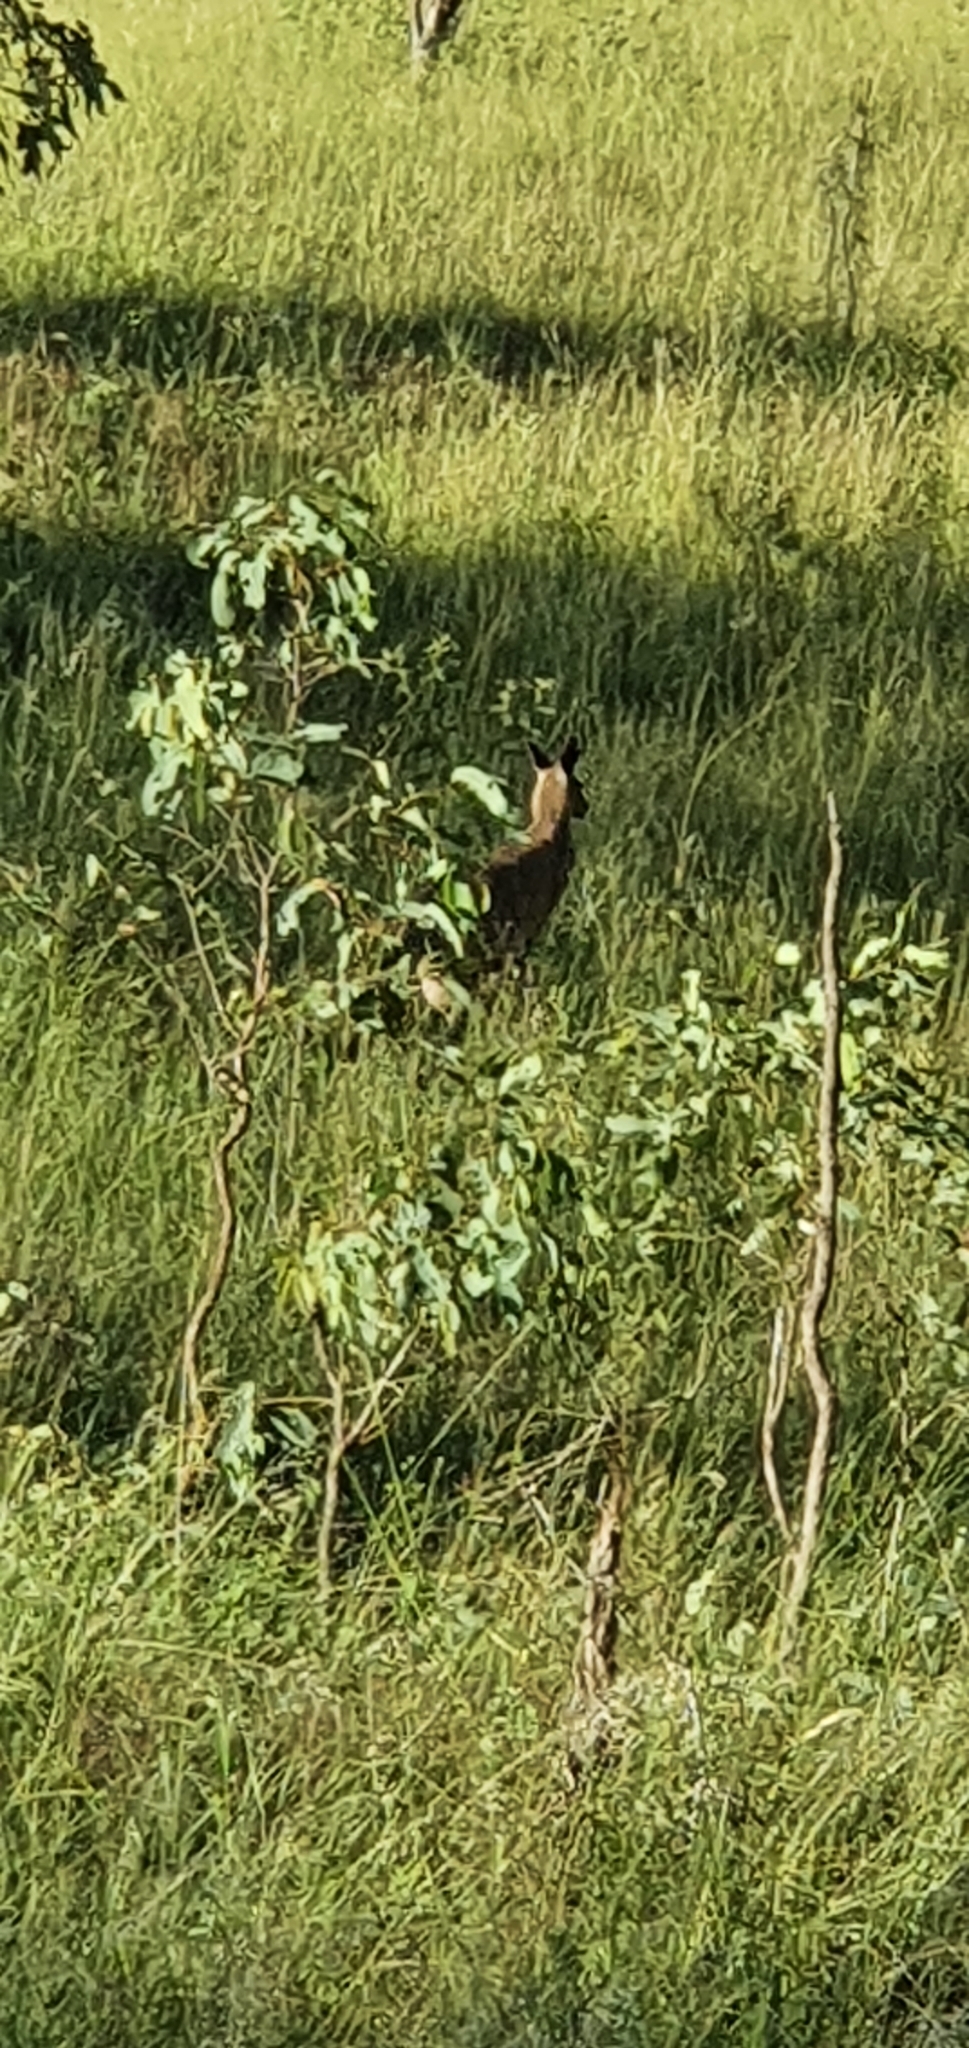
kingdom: Animalia
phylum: Chordata
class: Mammalia
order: Diprotodontia
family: Macropodidae
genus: Macropus
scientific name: Macropus giganteus
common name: Eastern grey kangaroo
